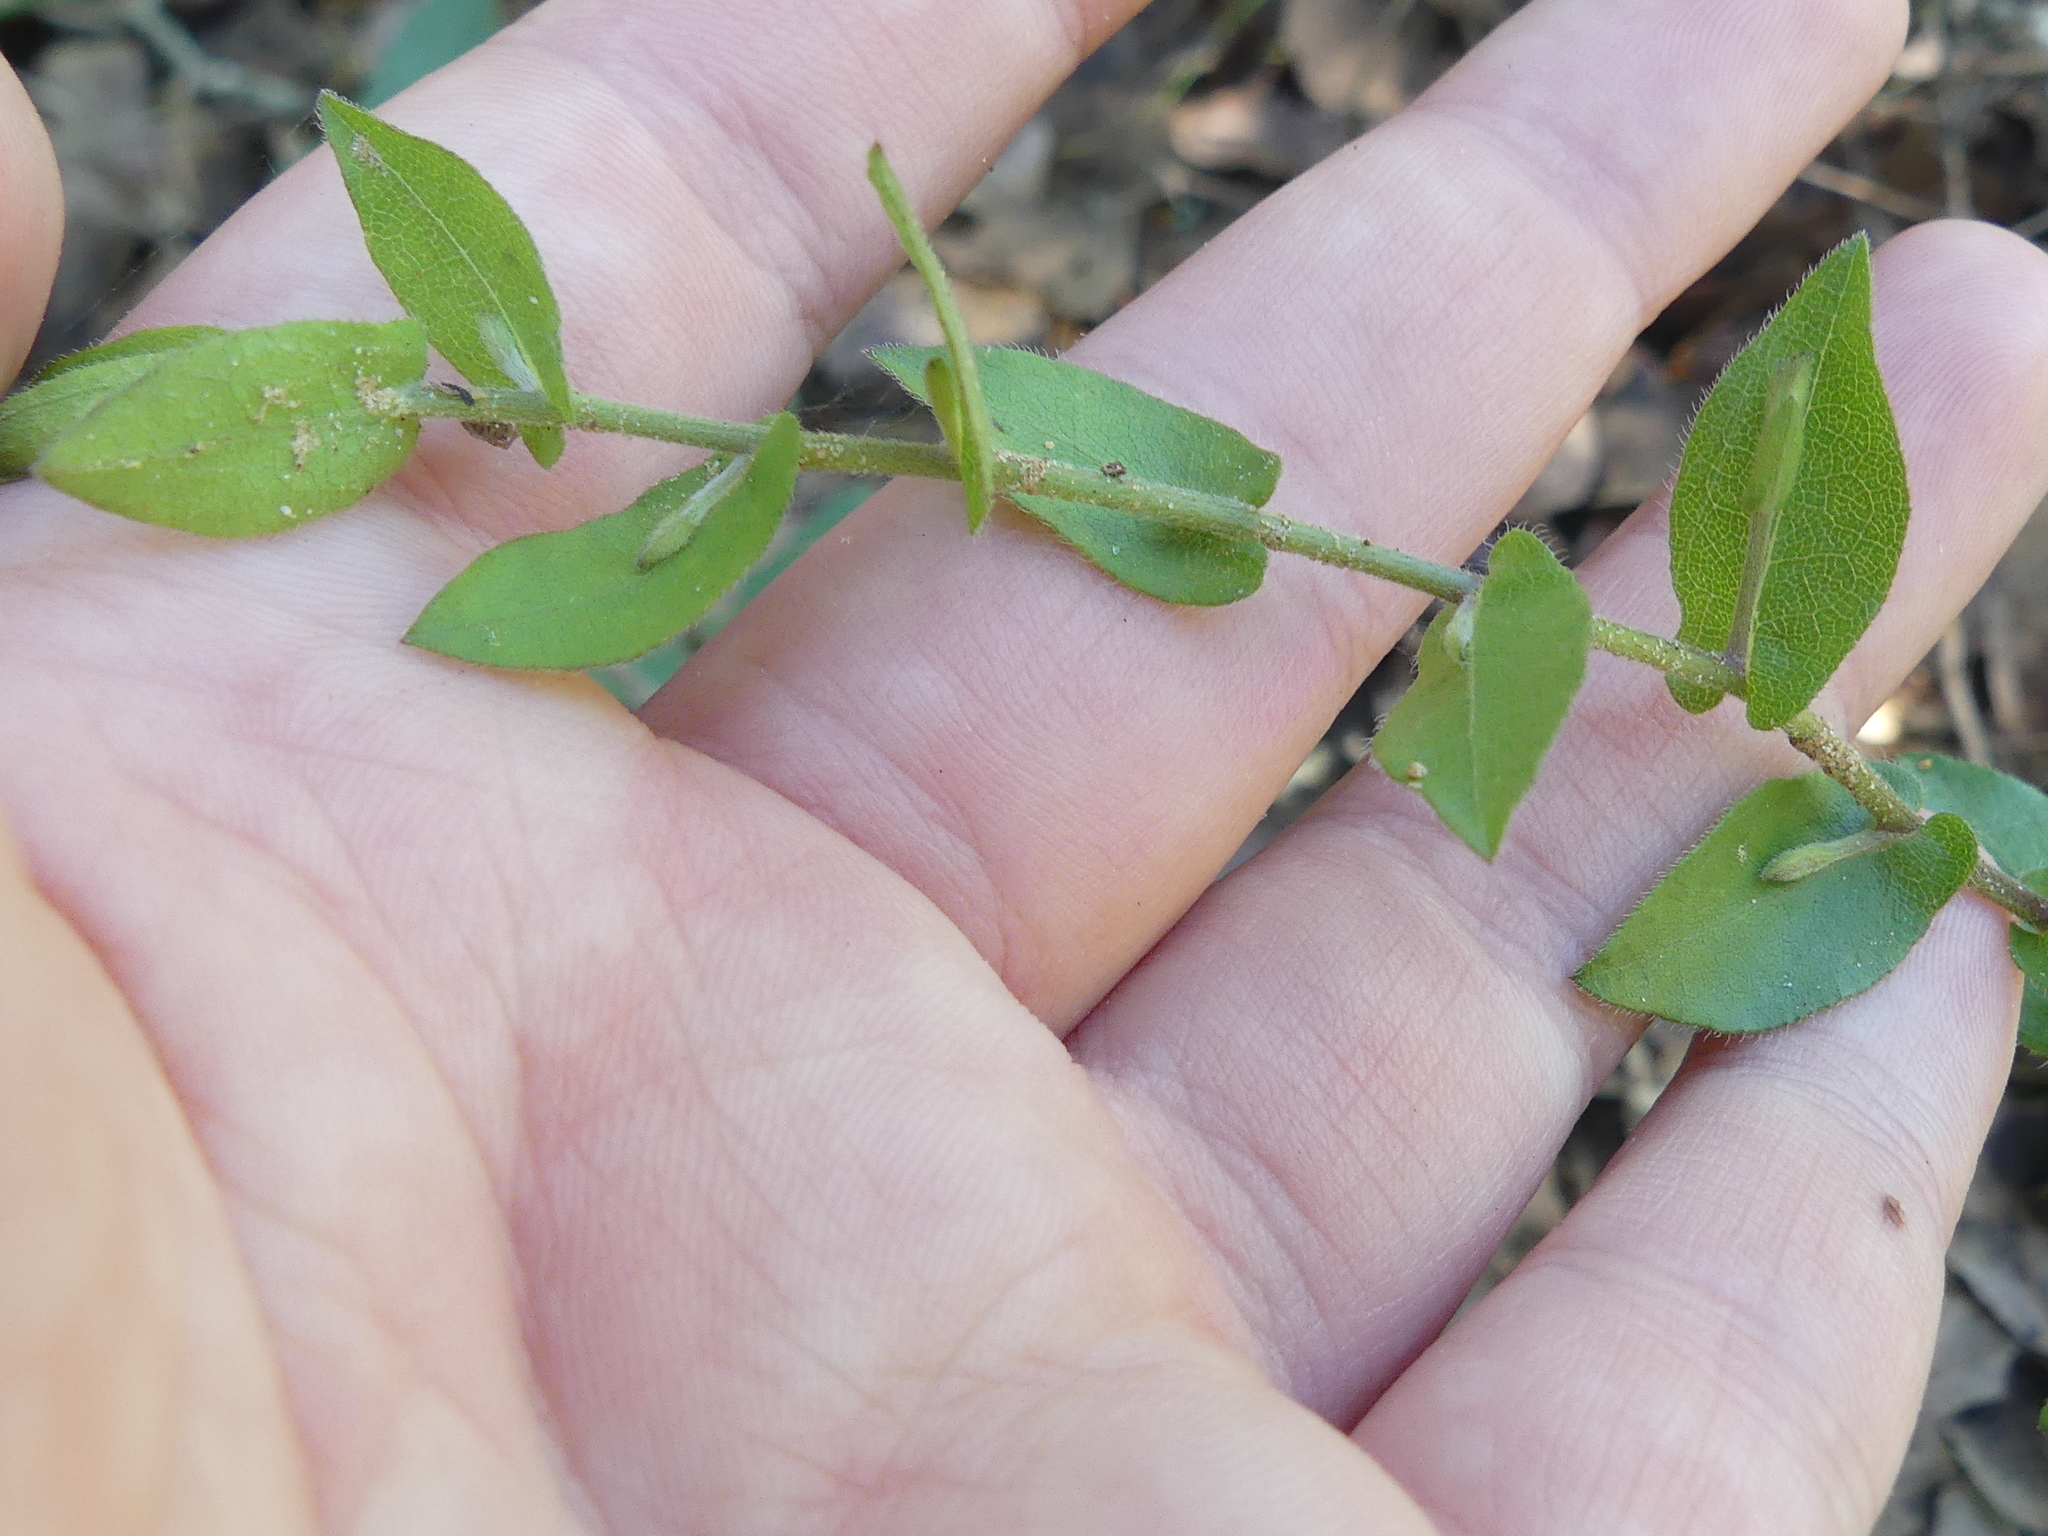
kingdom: Plantae
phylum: Tracheophyta
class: Magnoliopsida
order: Asterales
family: Asteraceae
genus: Symphyotrichum
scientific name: Symphyotrichum patens
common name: Late purple aster
